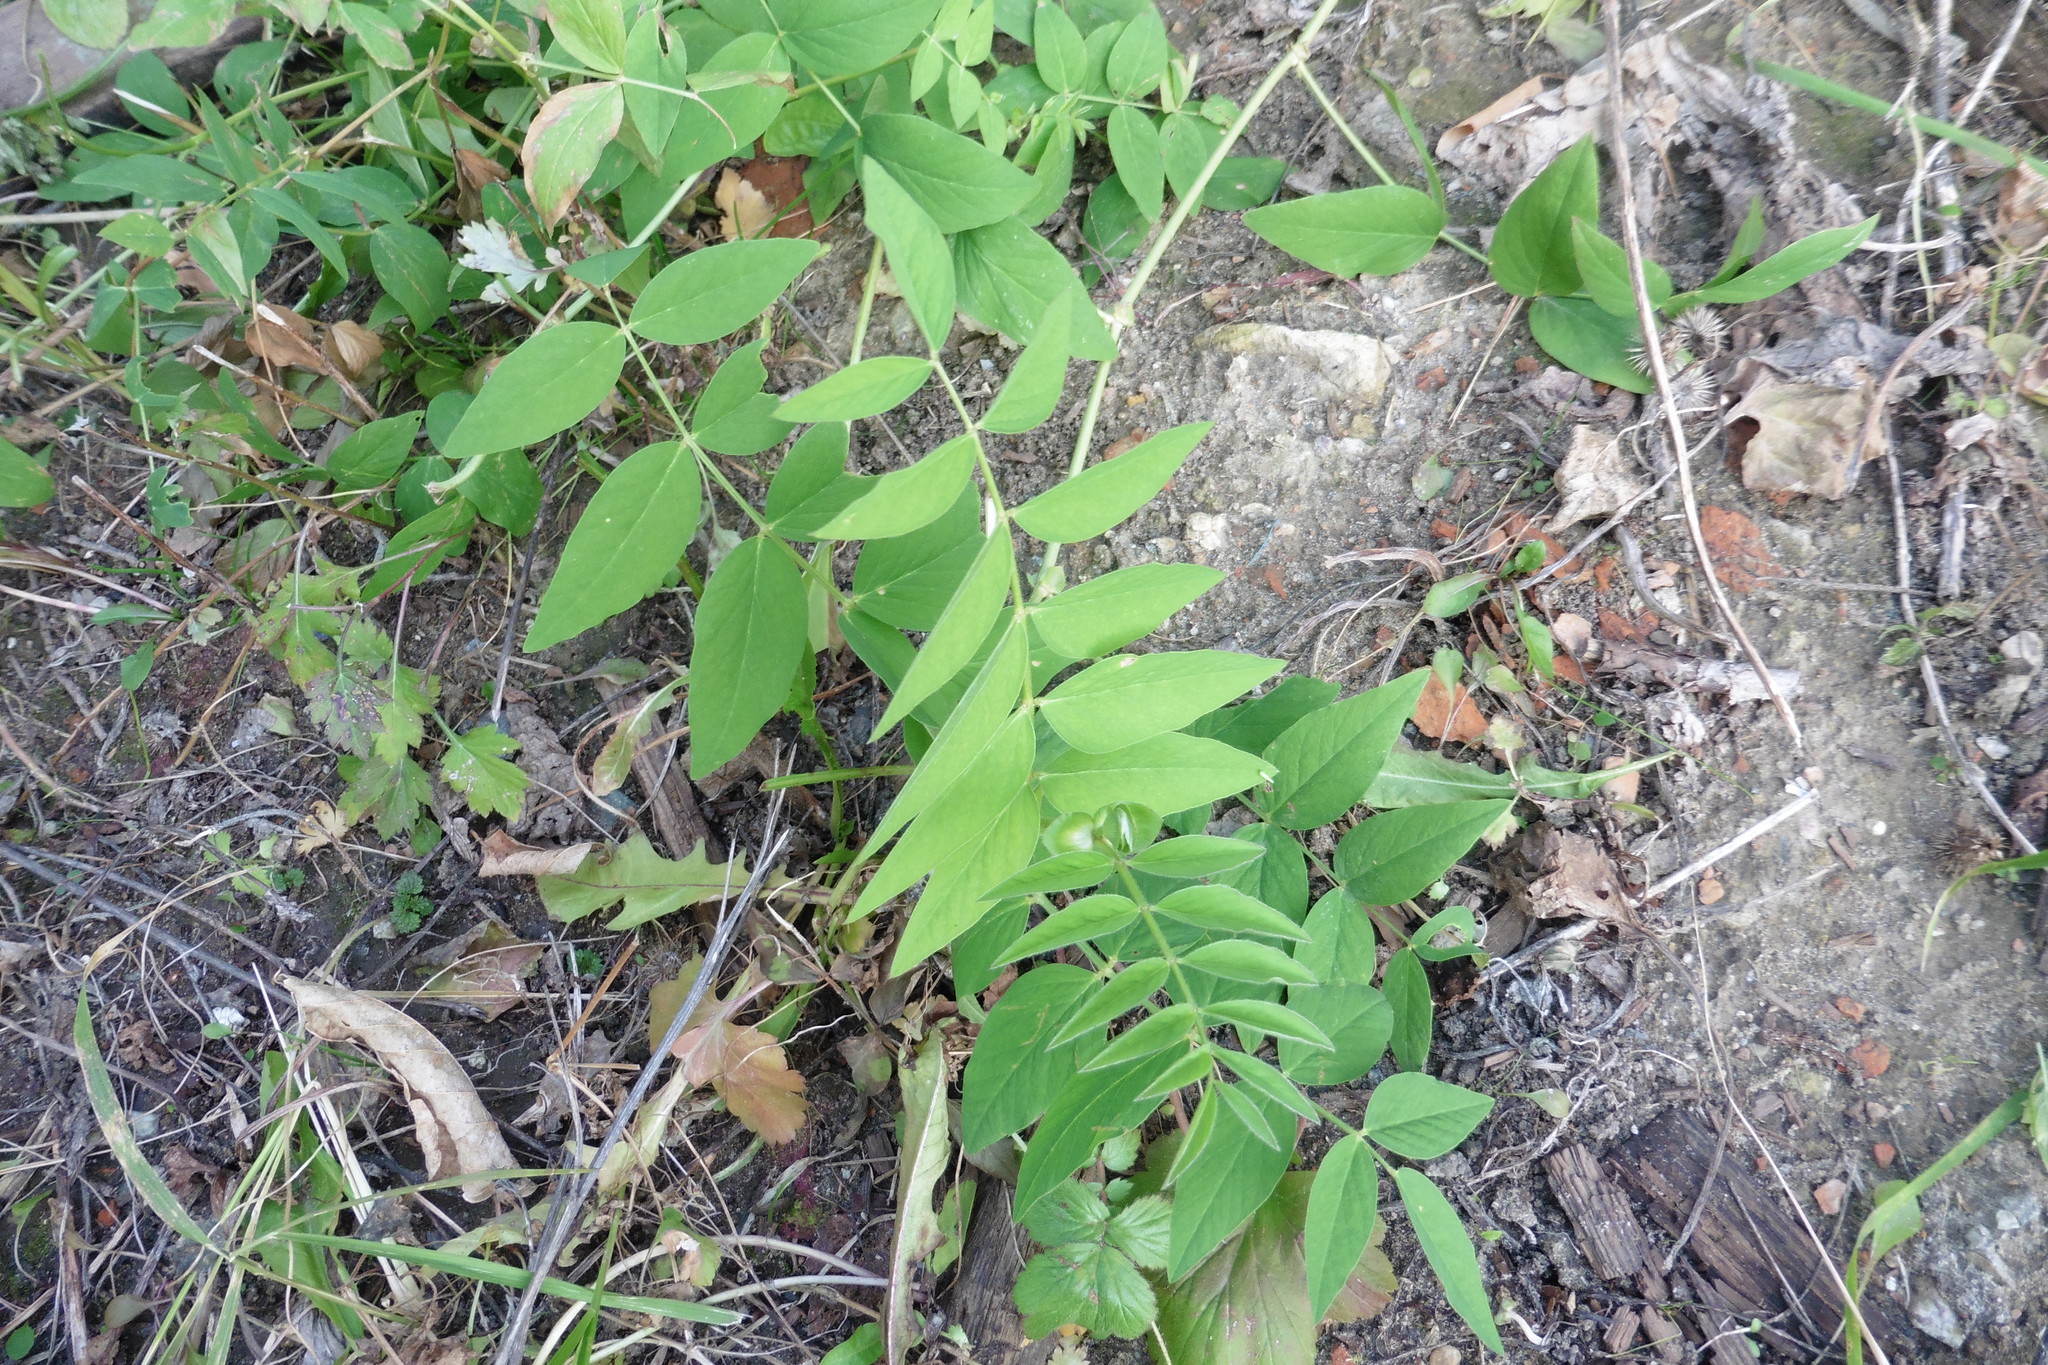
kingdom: Plantae
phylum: Tracheophyta
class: Magnoliopsida
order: Fabales
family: Fabaceae
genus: Galega
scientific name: Galega orientalis
